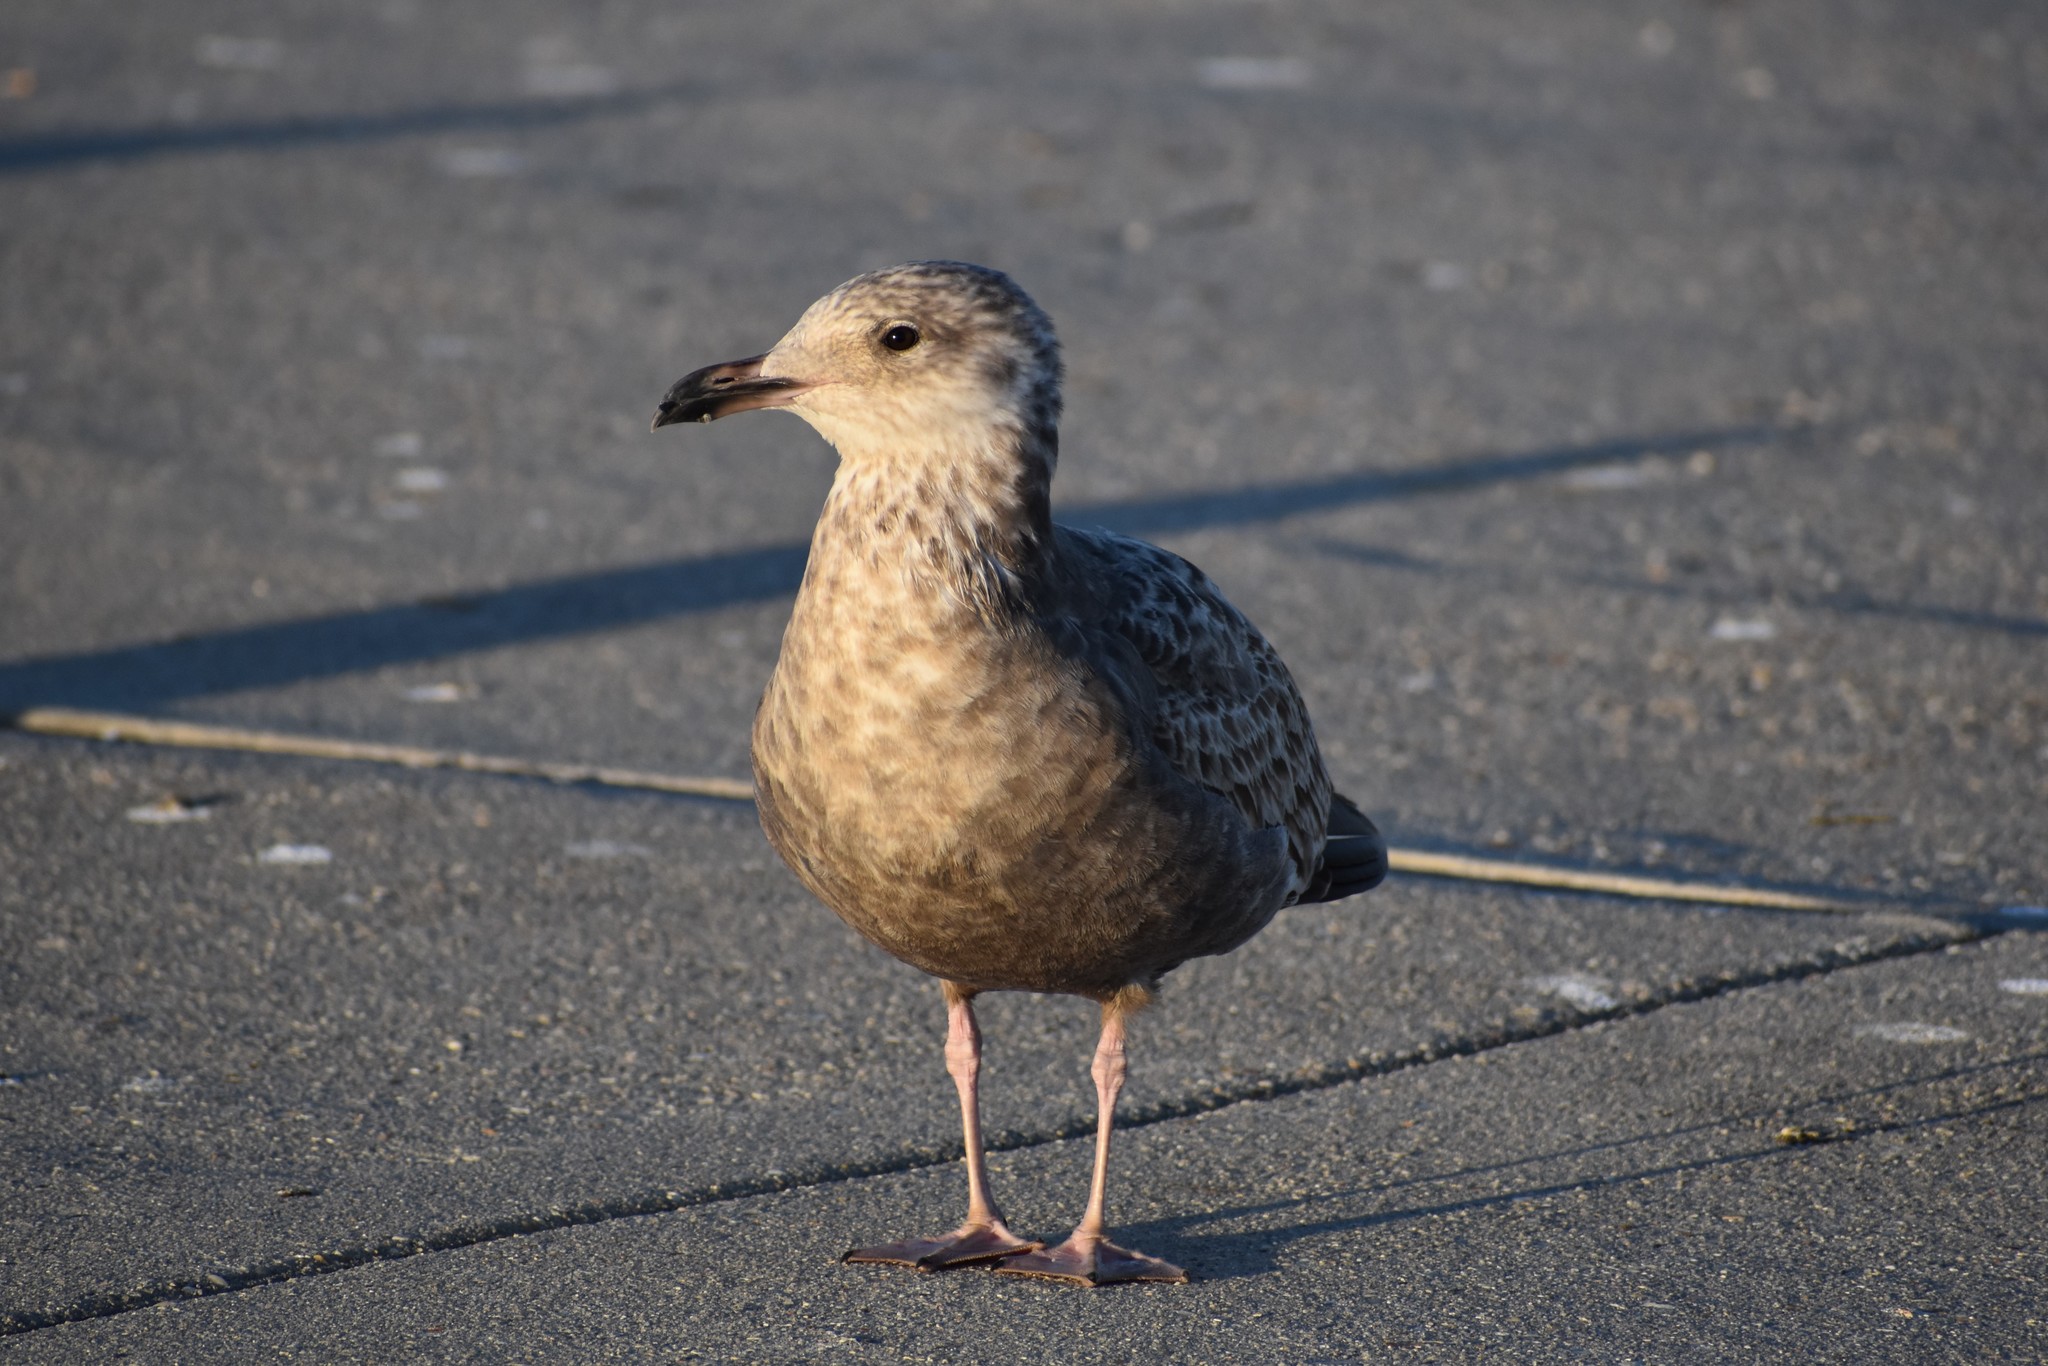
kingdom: Animalia
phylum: Chordata
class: Aves
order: Charadriiformes
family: Laridae
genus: Larus
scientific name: Larus argentatus
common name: Herring gull
